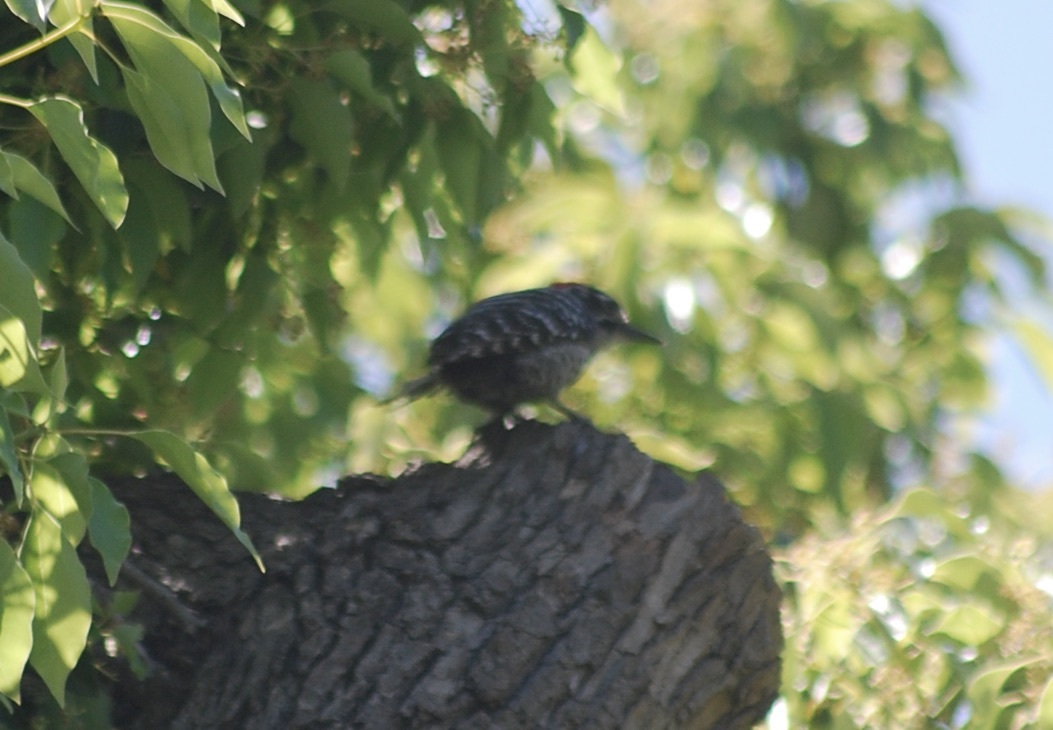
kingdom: Animalia
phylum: Chordata
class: Aves
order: Piciformes
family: Picidae
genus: Dryobates
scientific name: Dryobates nuttallii
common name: Nuttall's woodpecker
